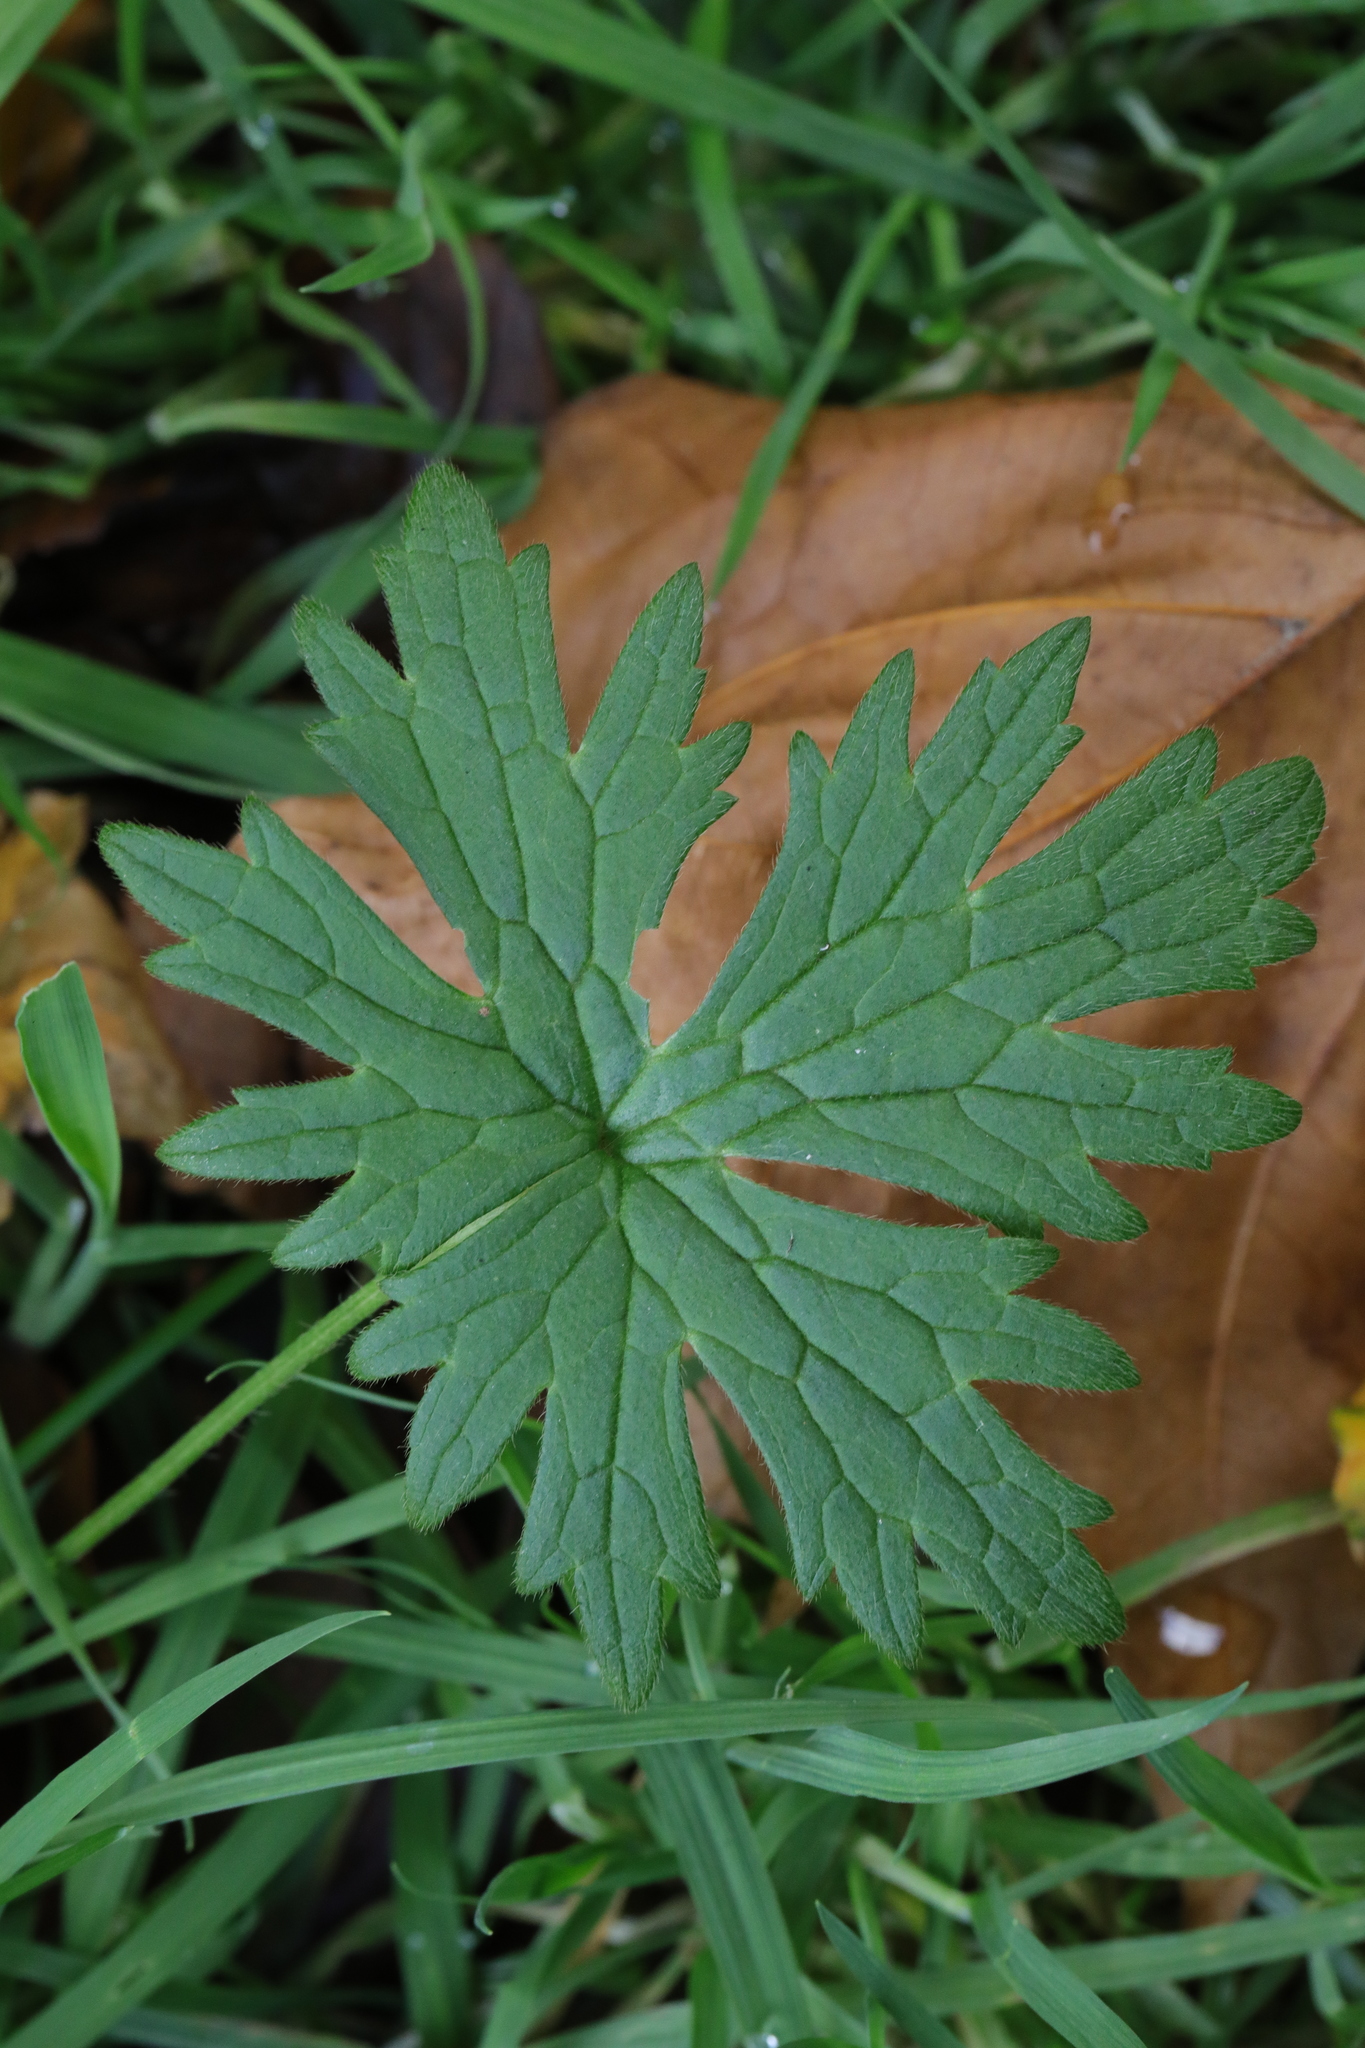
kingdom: Plantae
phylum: Tracheophyta
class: Magnoliopsida
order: Ranunculales
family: Ranunculaceae
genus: Ranunculus
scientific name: Ranunculus acris
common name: Meadow buttercup
